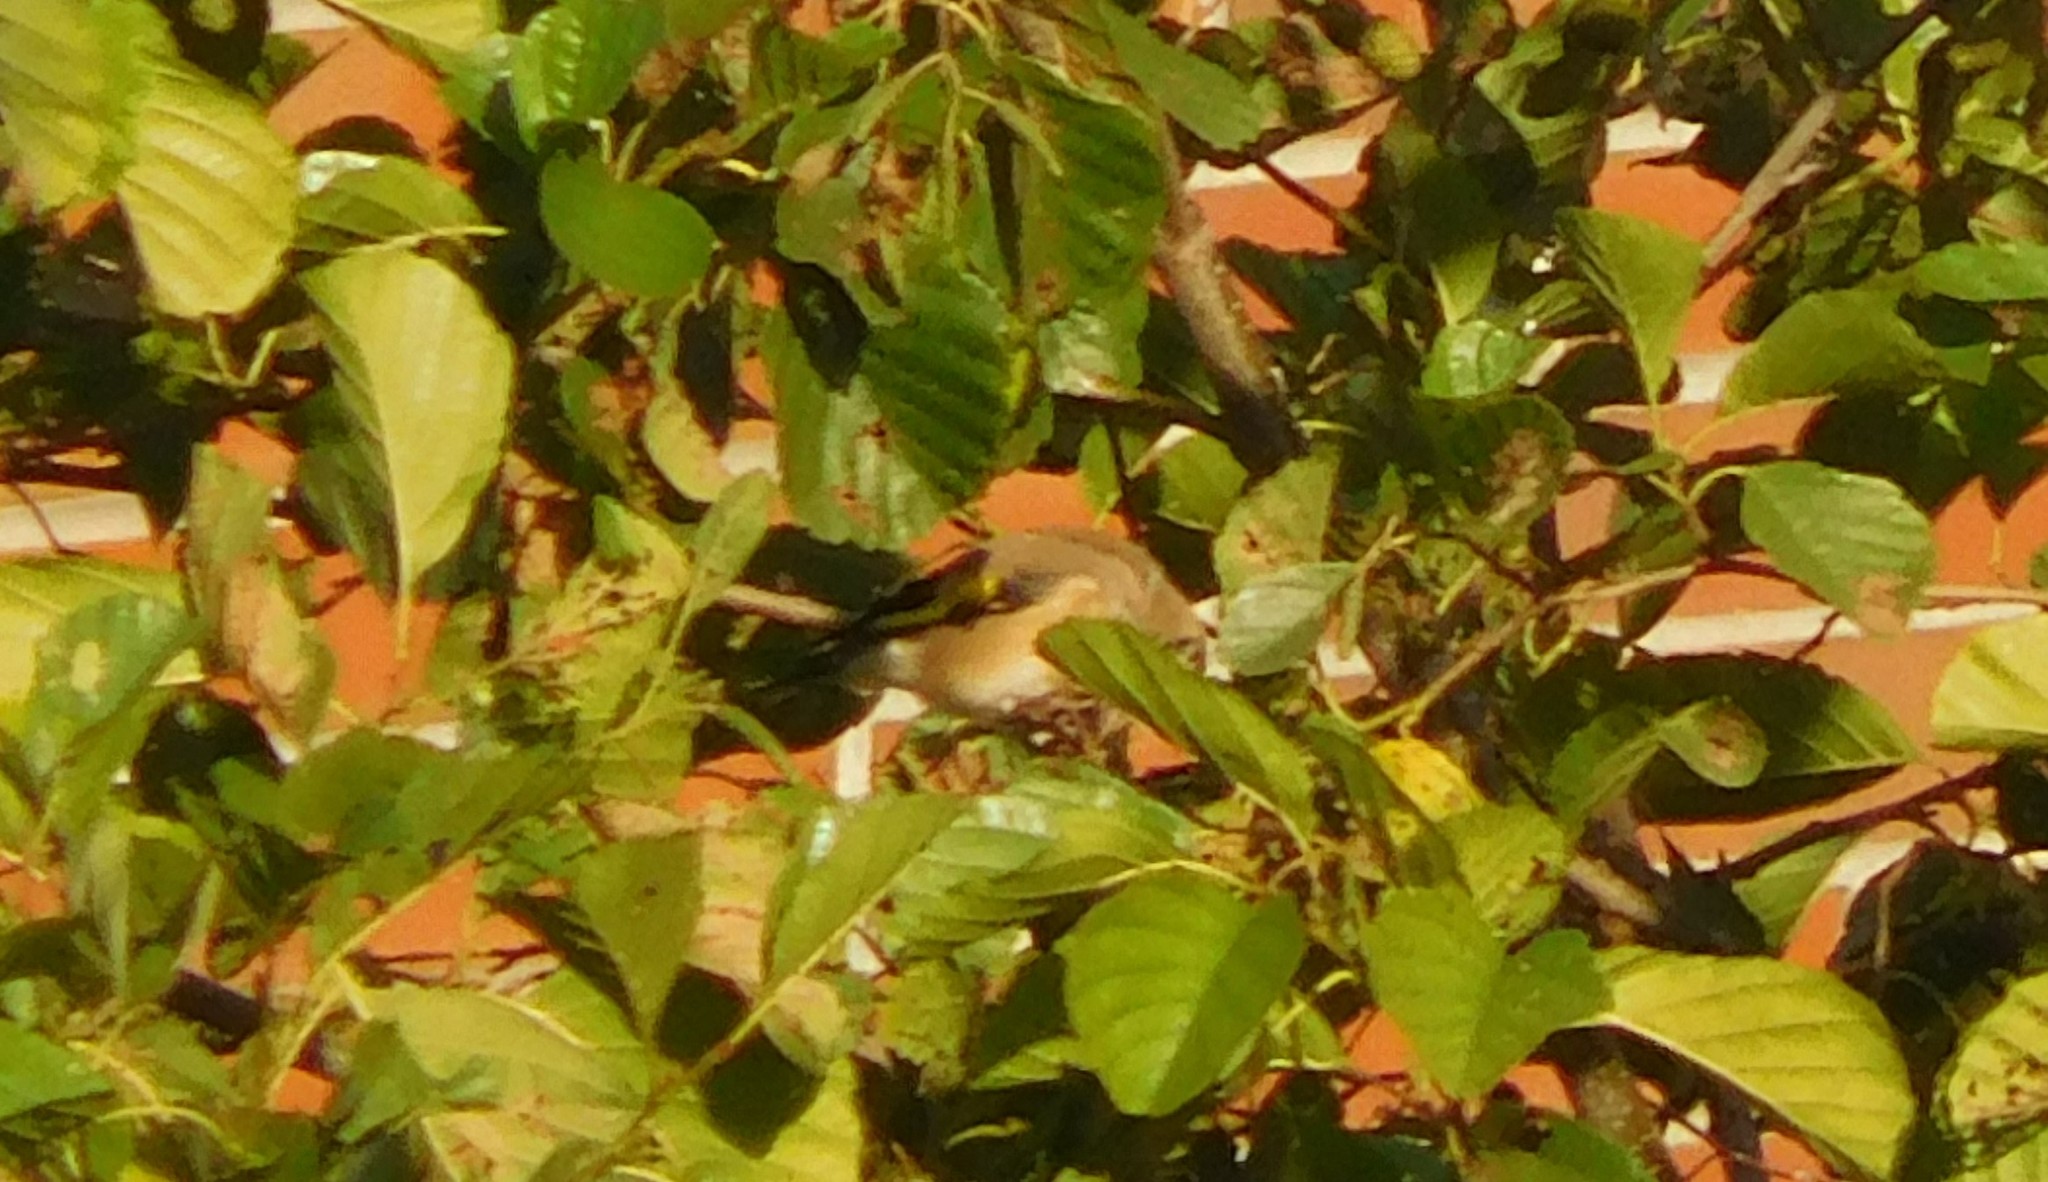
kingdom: Animalia
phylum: Chordata
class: Aves
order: Passeriformes
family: Fringillidae
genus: Carduelis
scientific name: Carduelis carduelis
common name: European goldfinch
